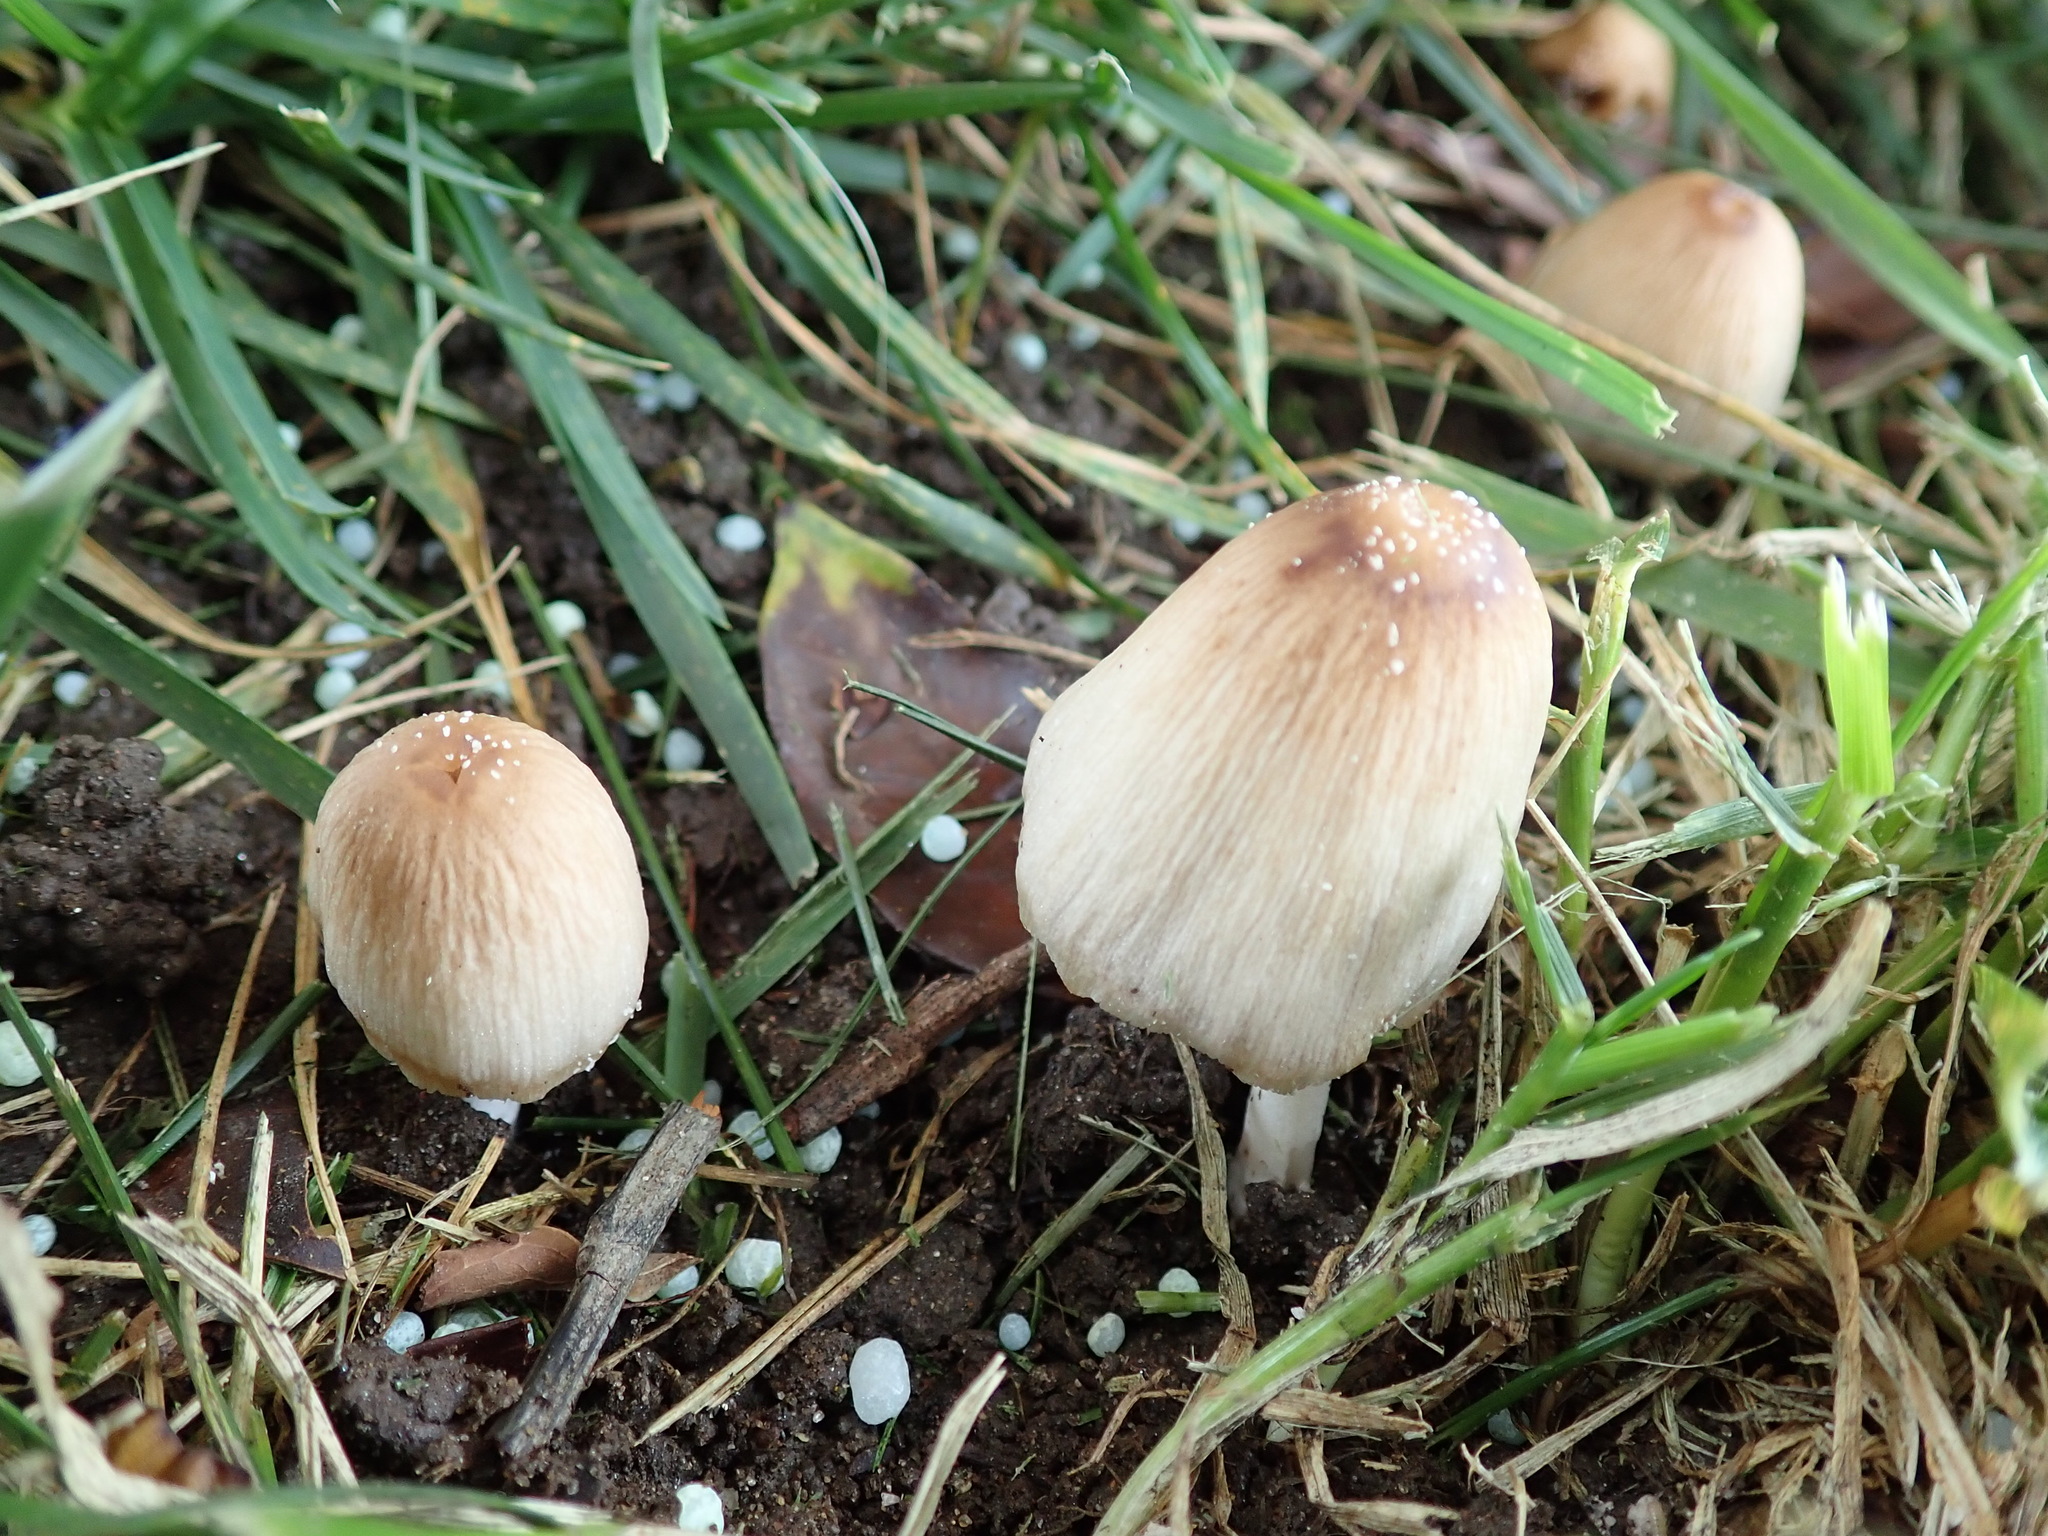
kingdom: Fungi
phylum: Basidiomycota
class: Agaricomycetes
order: Agaricales
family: Psathyrellaceae
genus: Coprinellus
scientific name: Coprinellus micaceus
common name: Glistening ink-cap
